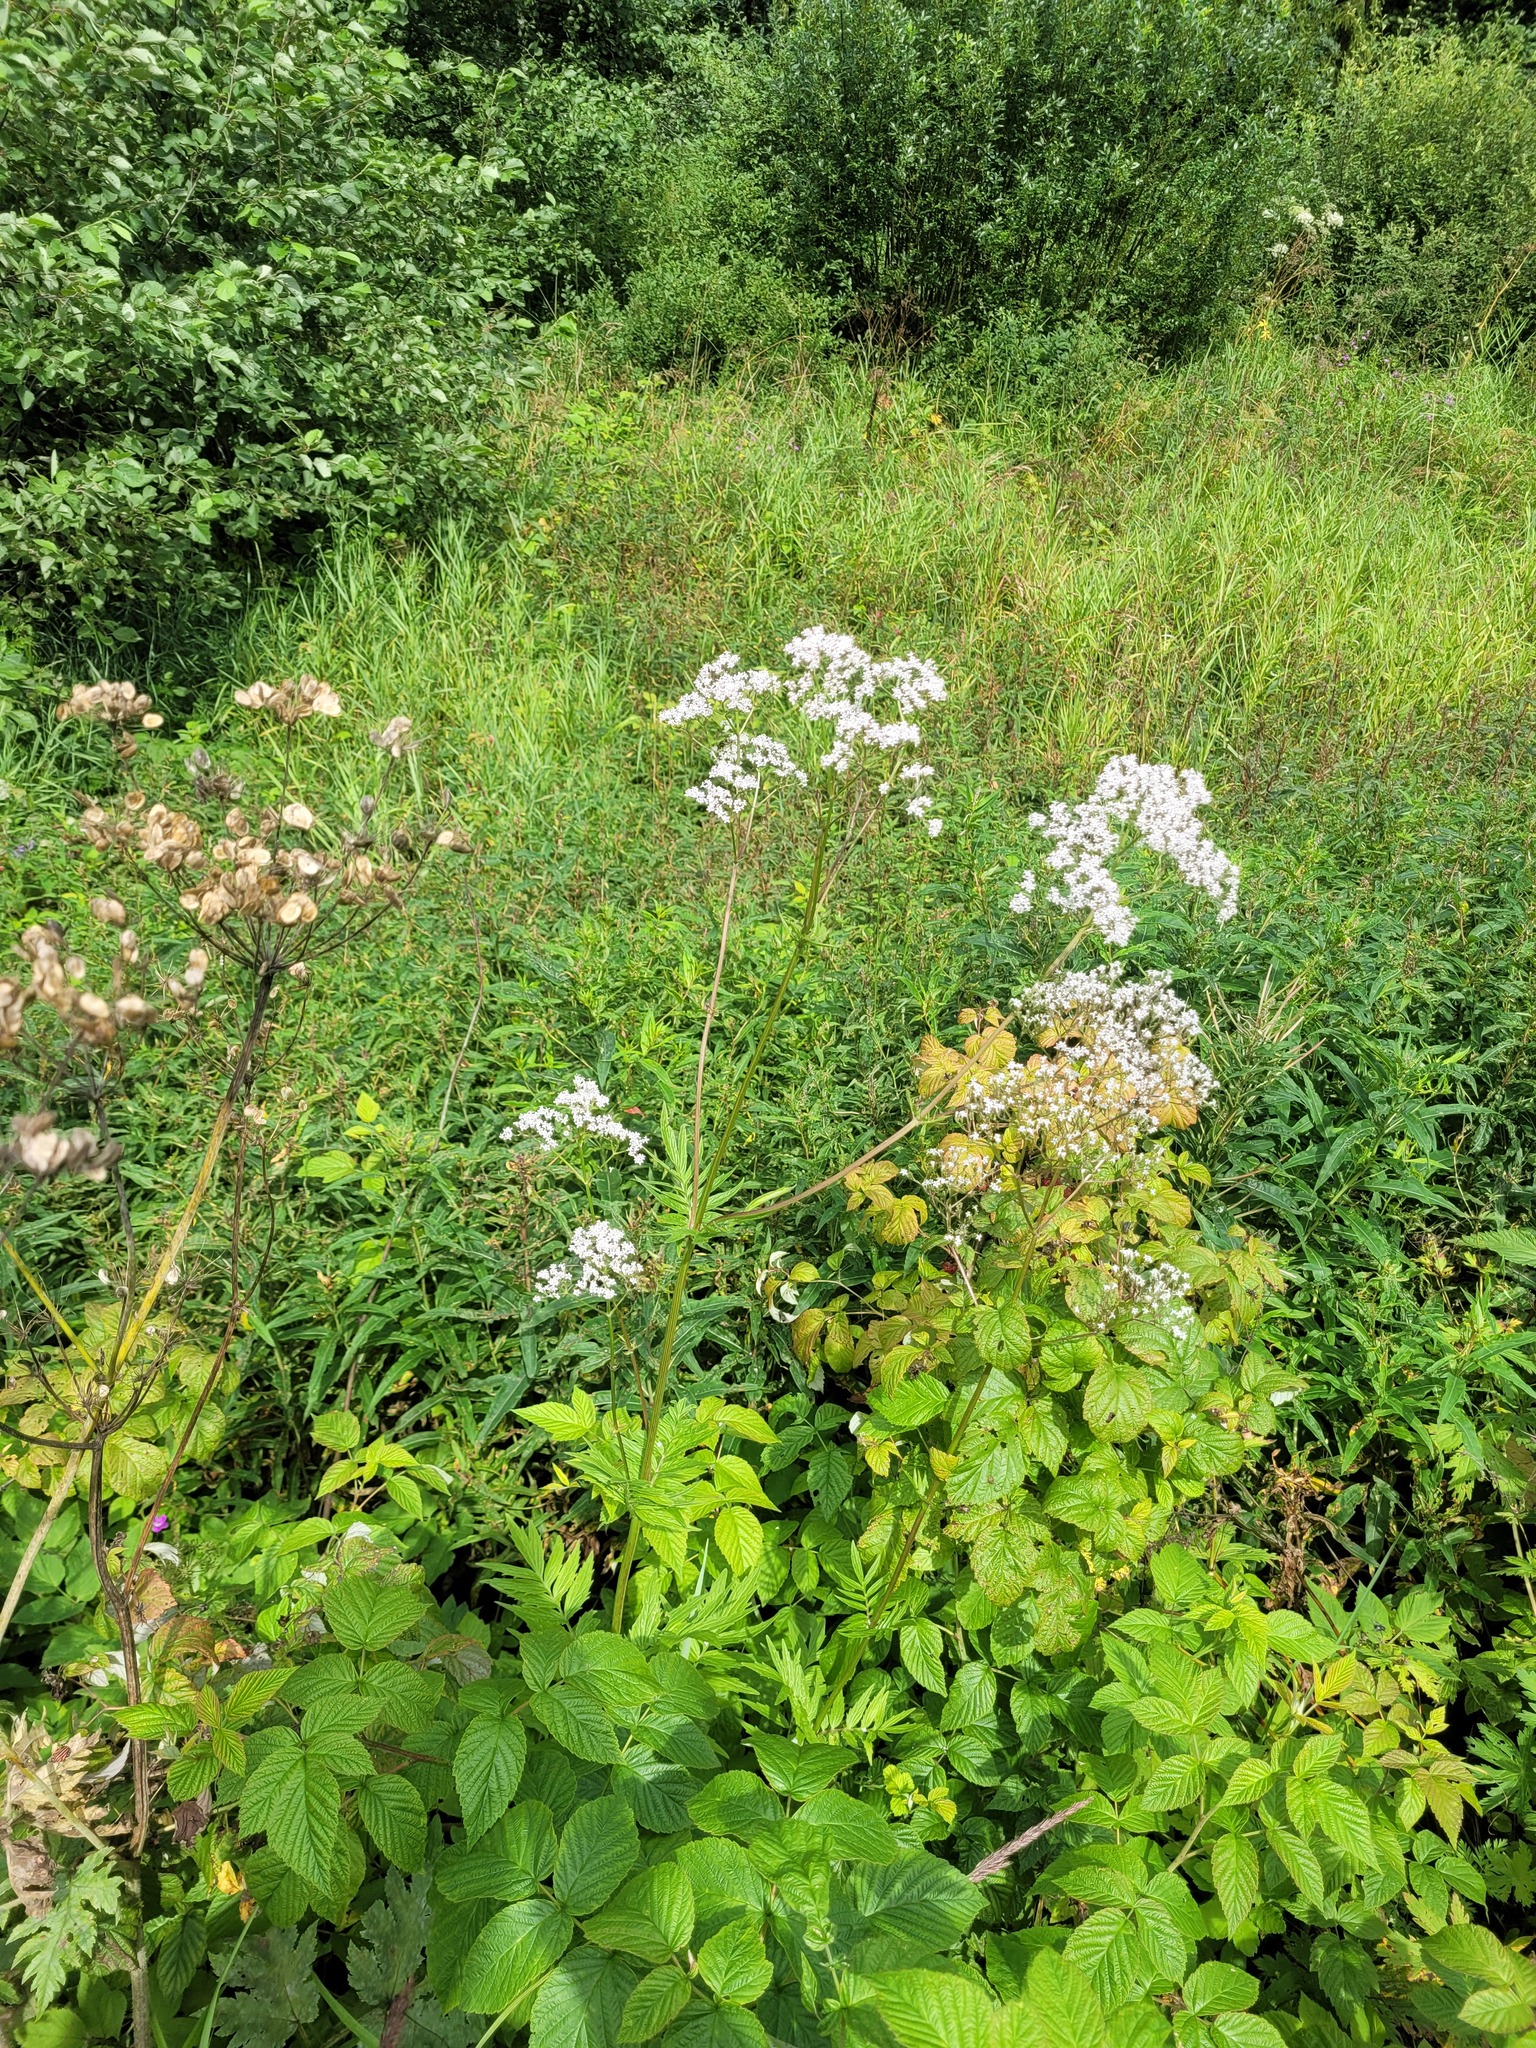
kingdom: Plantae
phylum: Tracheophyta
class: Magnoliopsida
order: Dipsacales
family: Caprifoliaceae
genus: Valeriana
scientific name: Valeriana officinalis
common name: Common valerian
